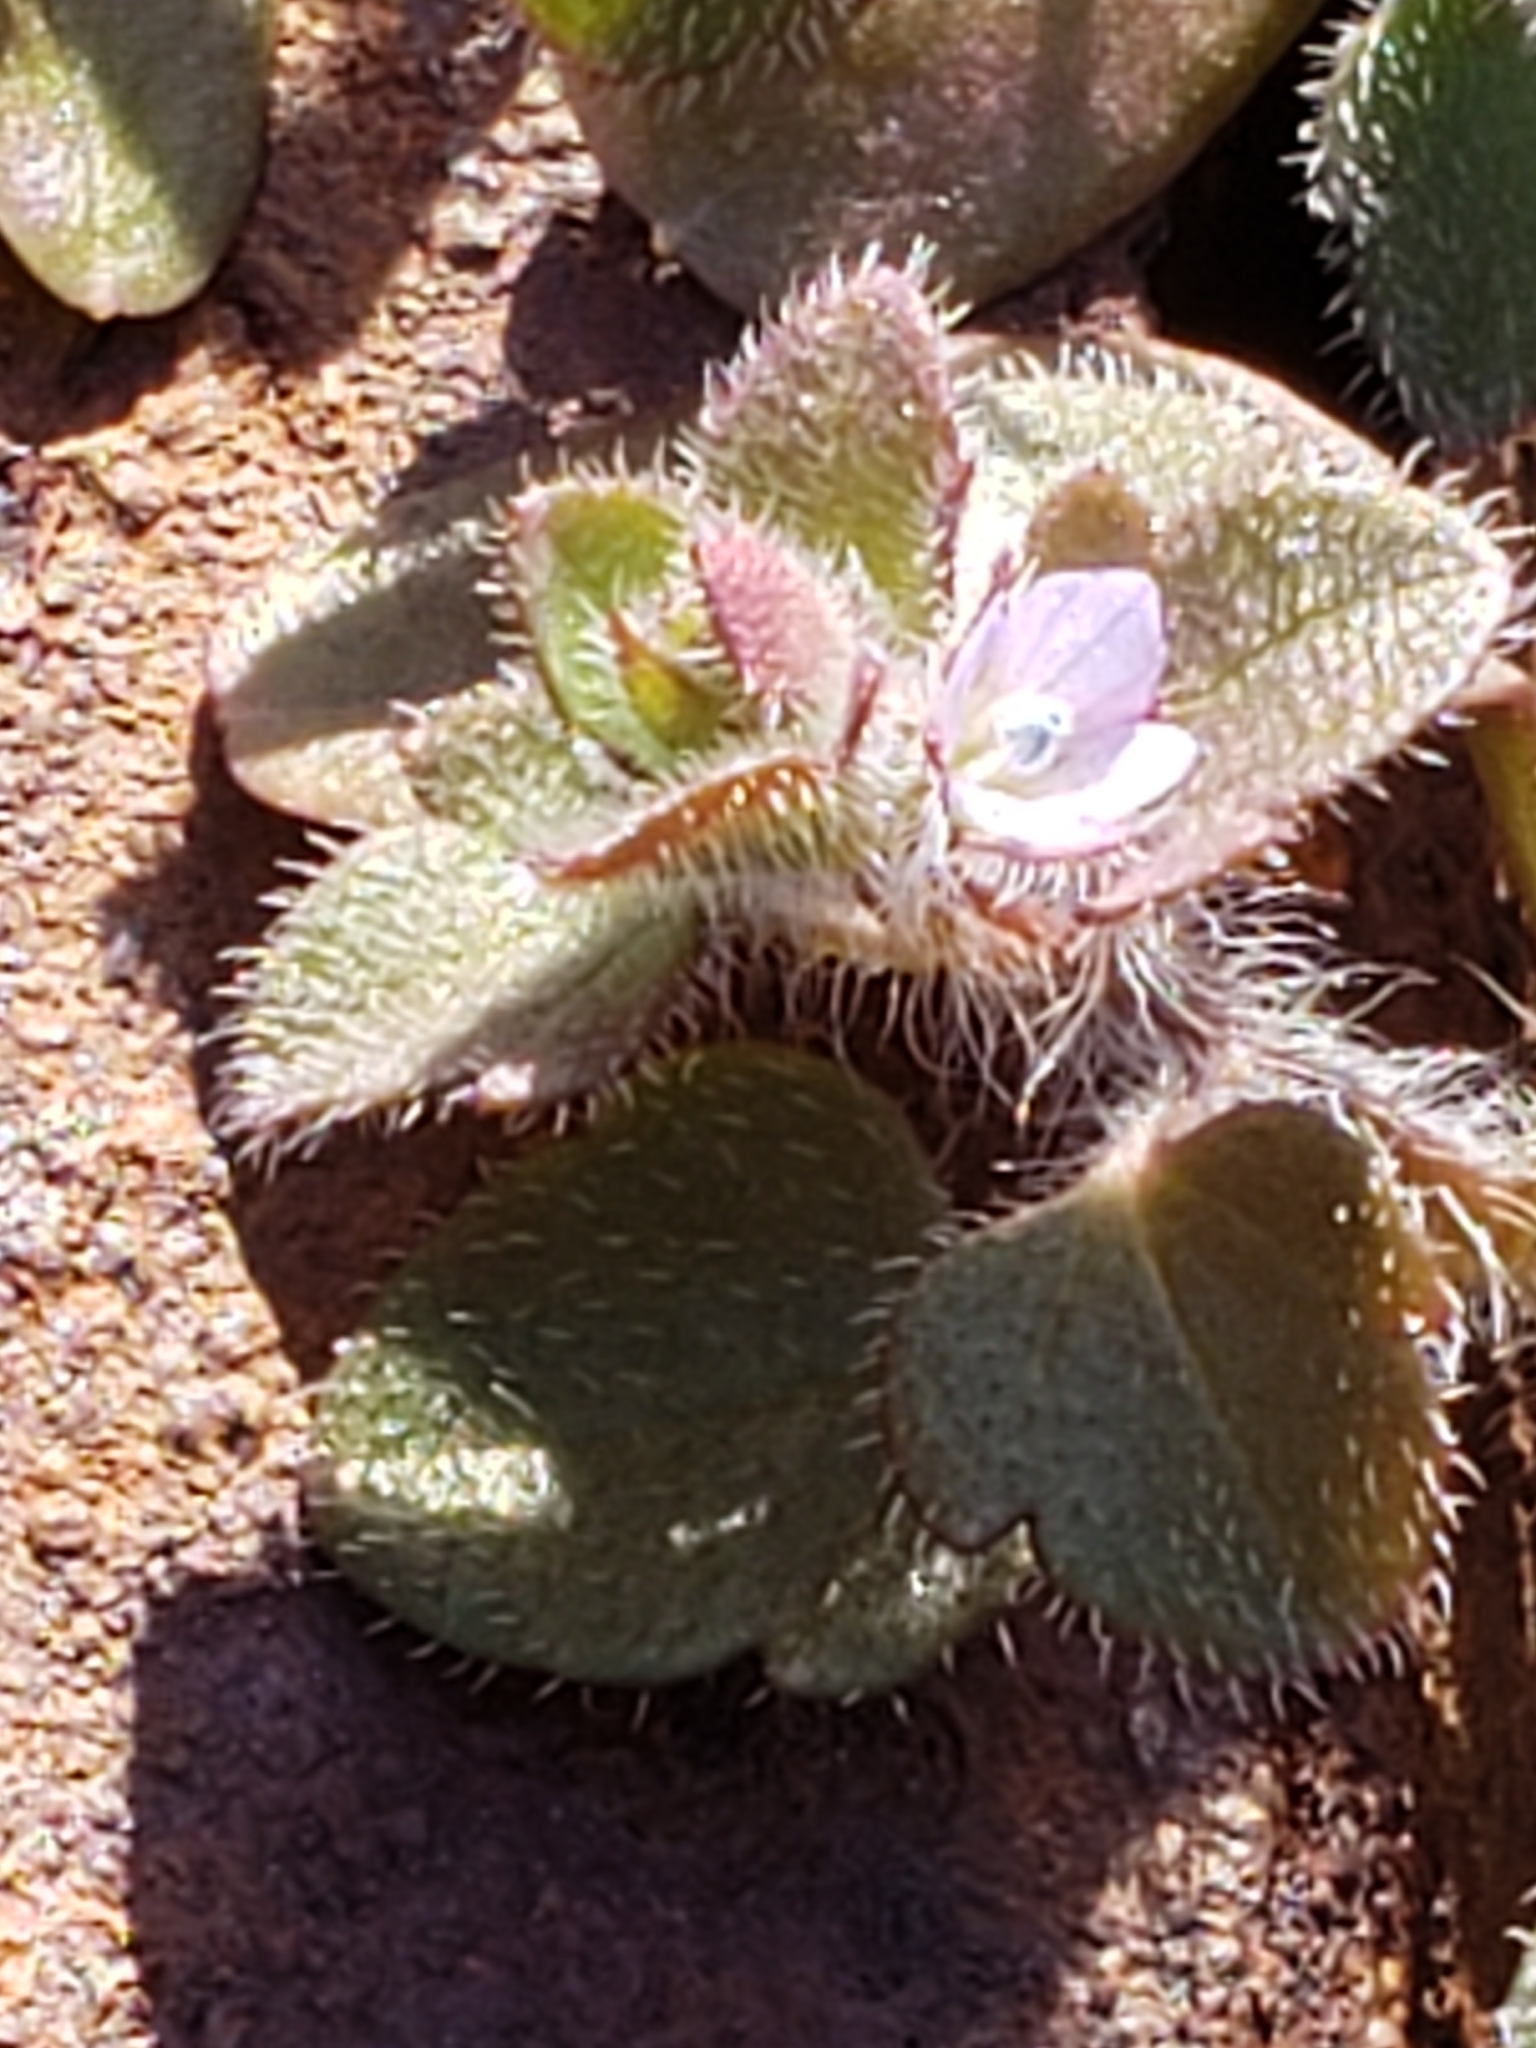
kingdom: Plantae
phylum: Tracheophyta
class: Magnoliopsida
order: Lamiales
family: Plantaginaceae
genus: Veronica
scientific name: Veronica hederifolia
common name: Ivy-leaved speedwell
